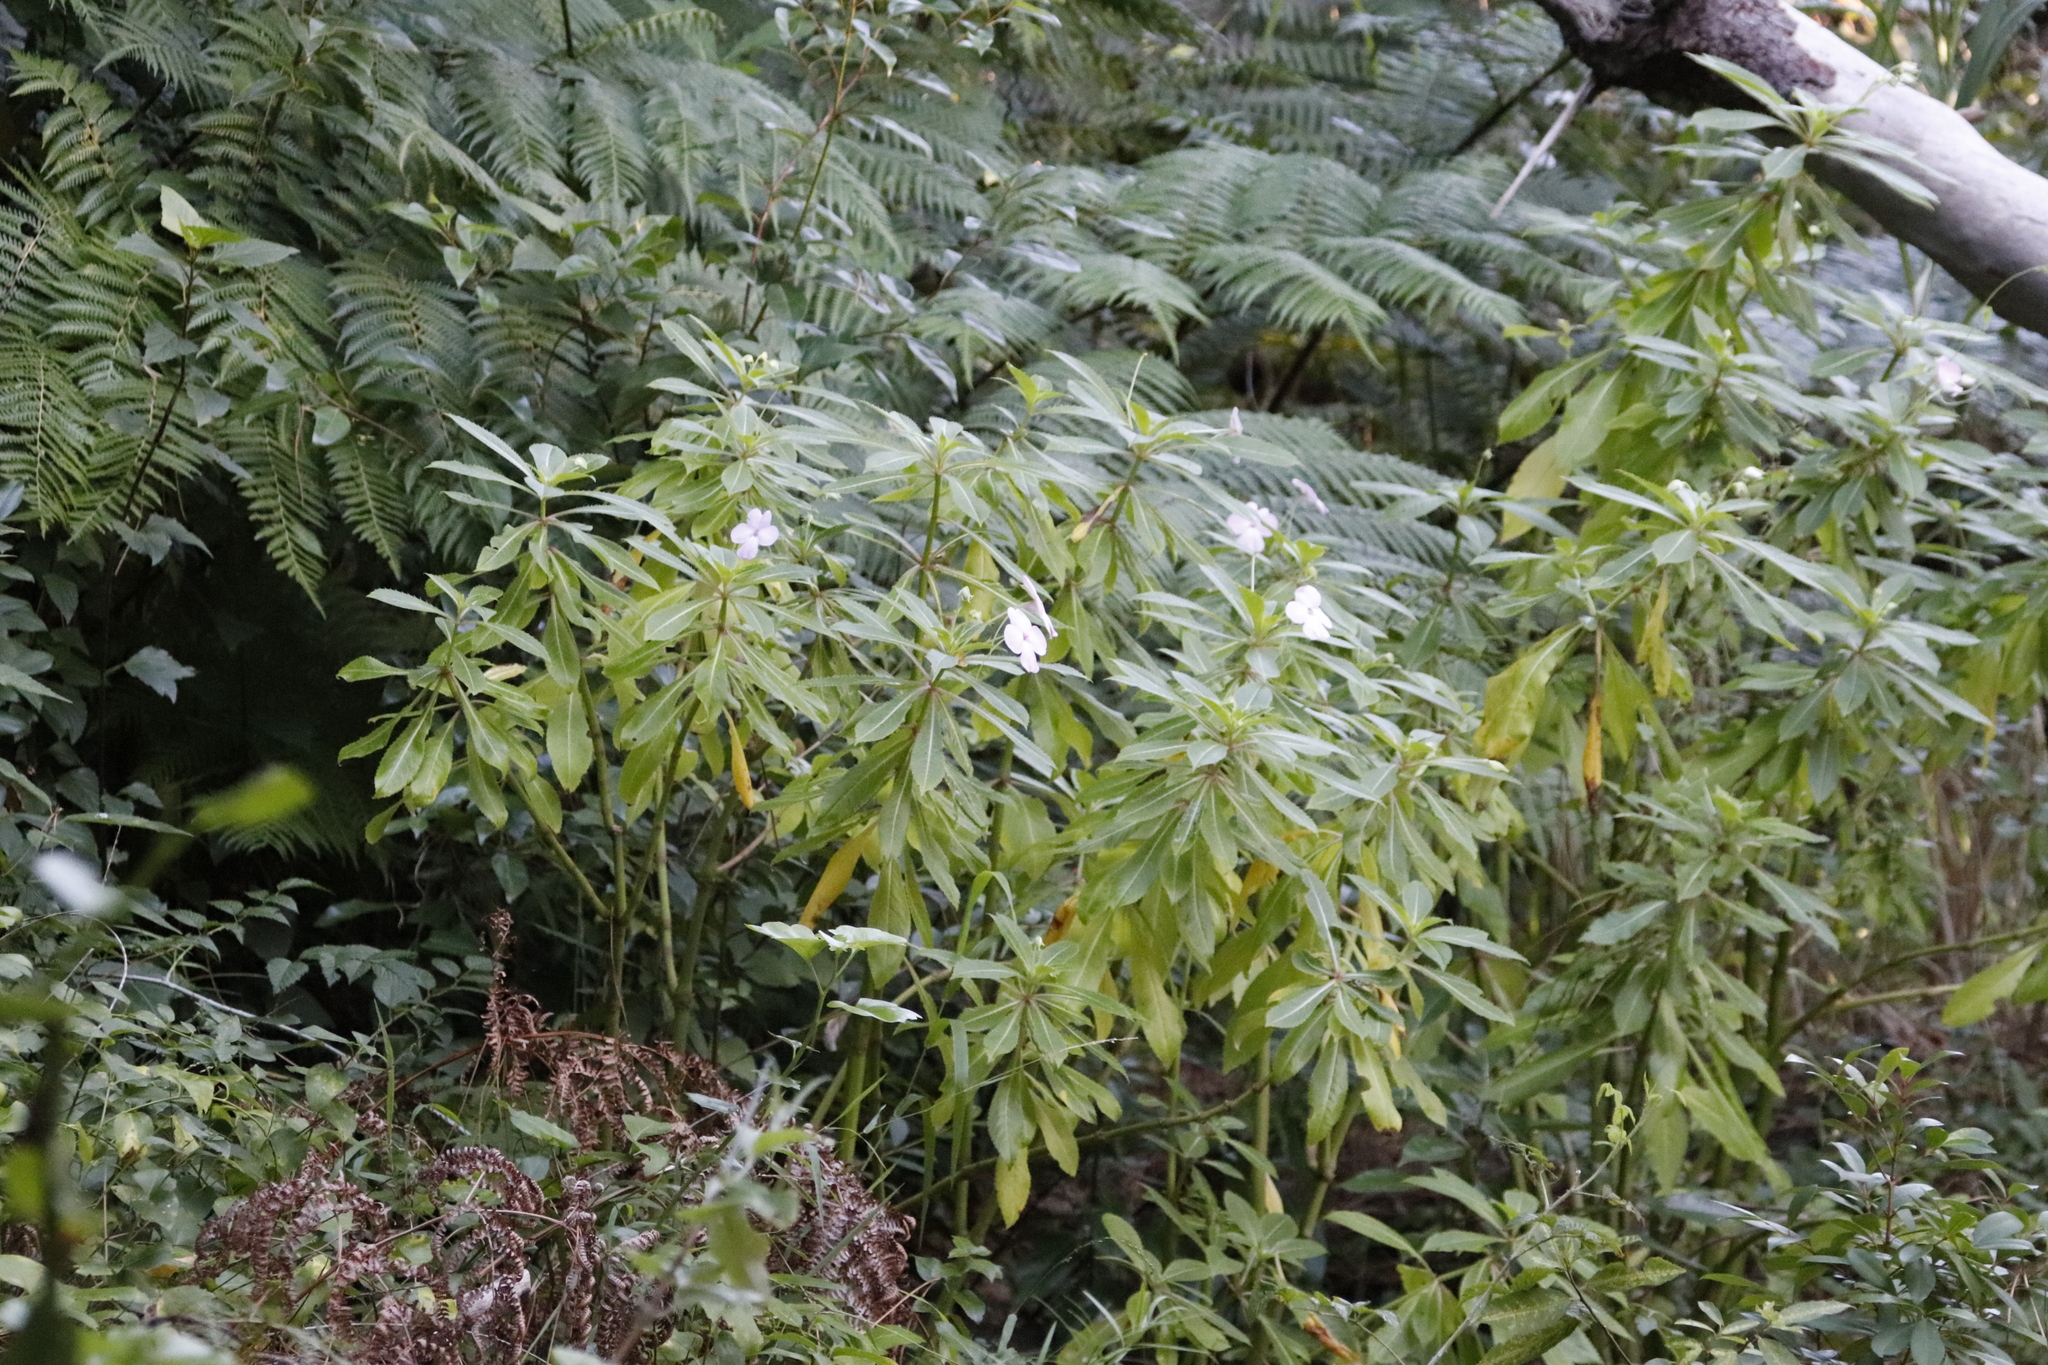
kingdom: Plantae
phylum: Tracheophyta
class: Magnoliopsida
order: Ericales
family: Balsaminaceae
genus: Impatiens
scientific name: Impatiens sodenii
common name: Oliver's touch-me-not
